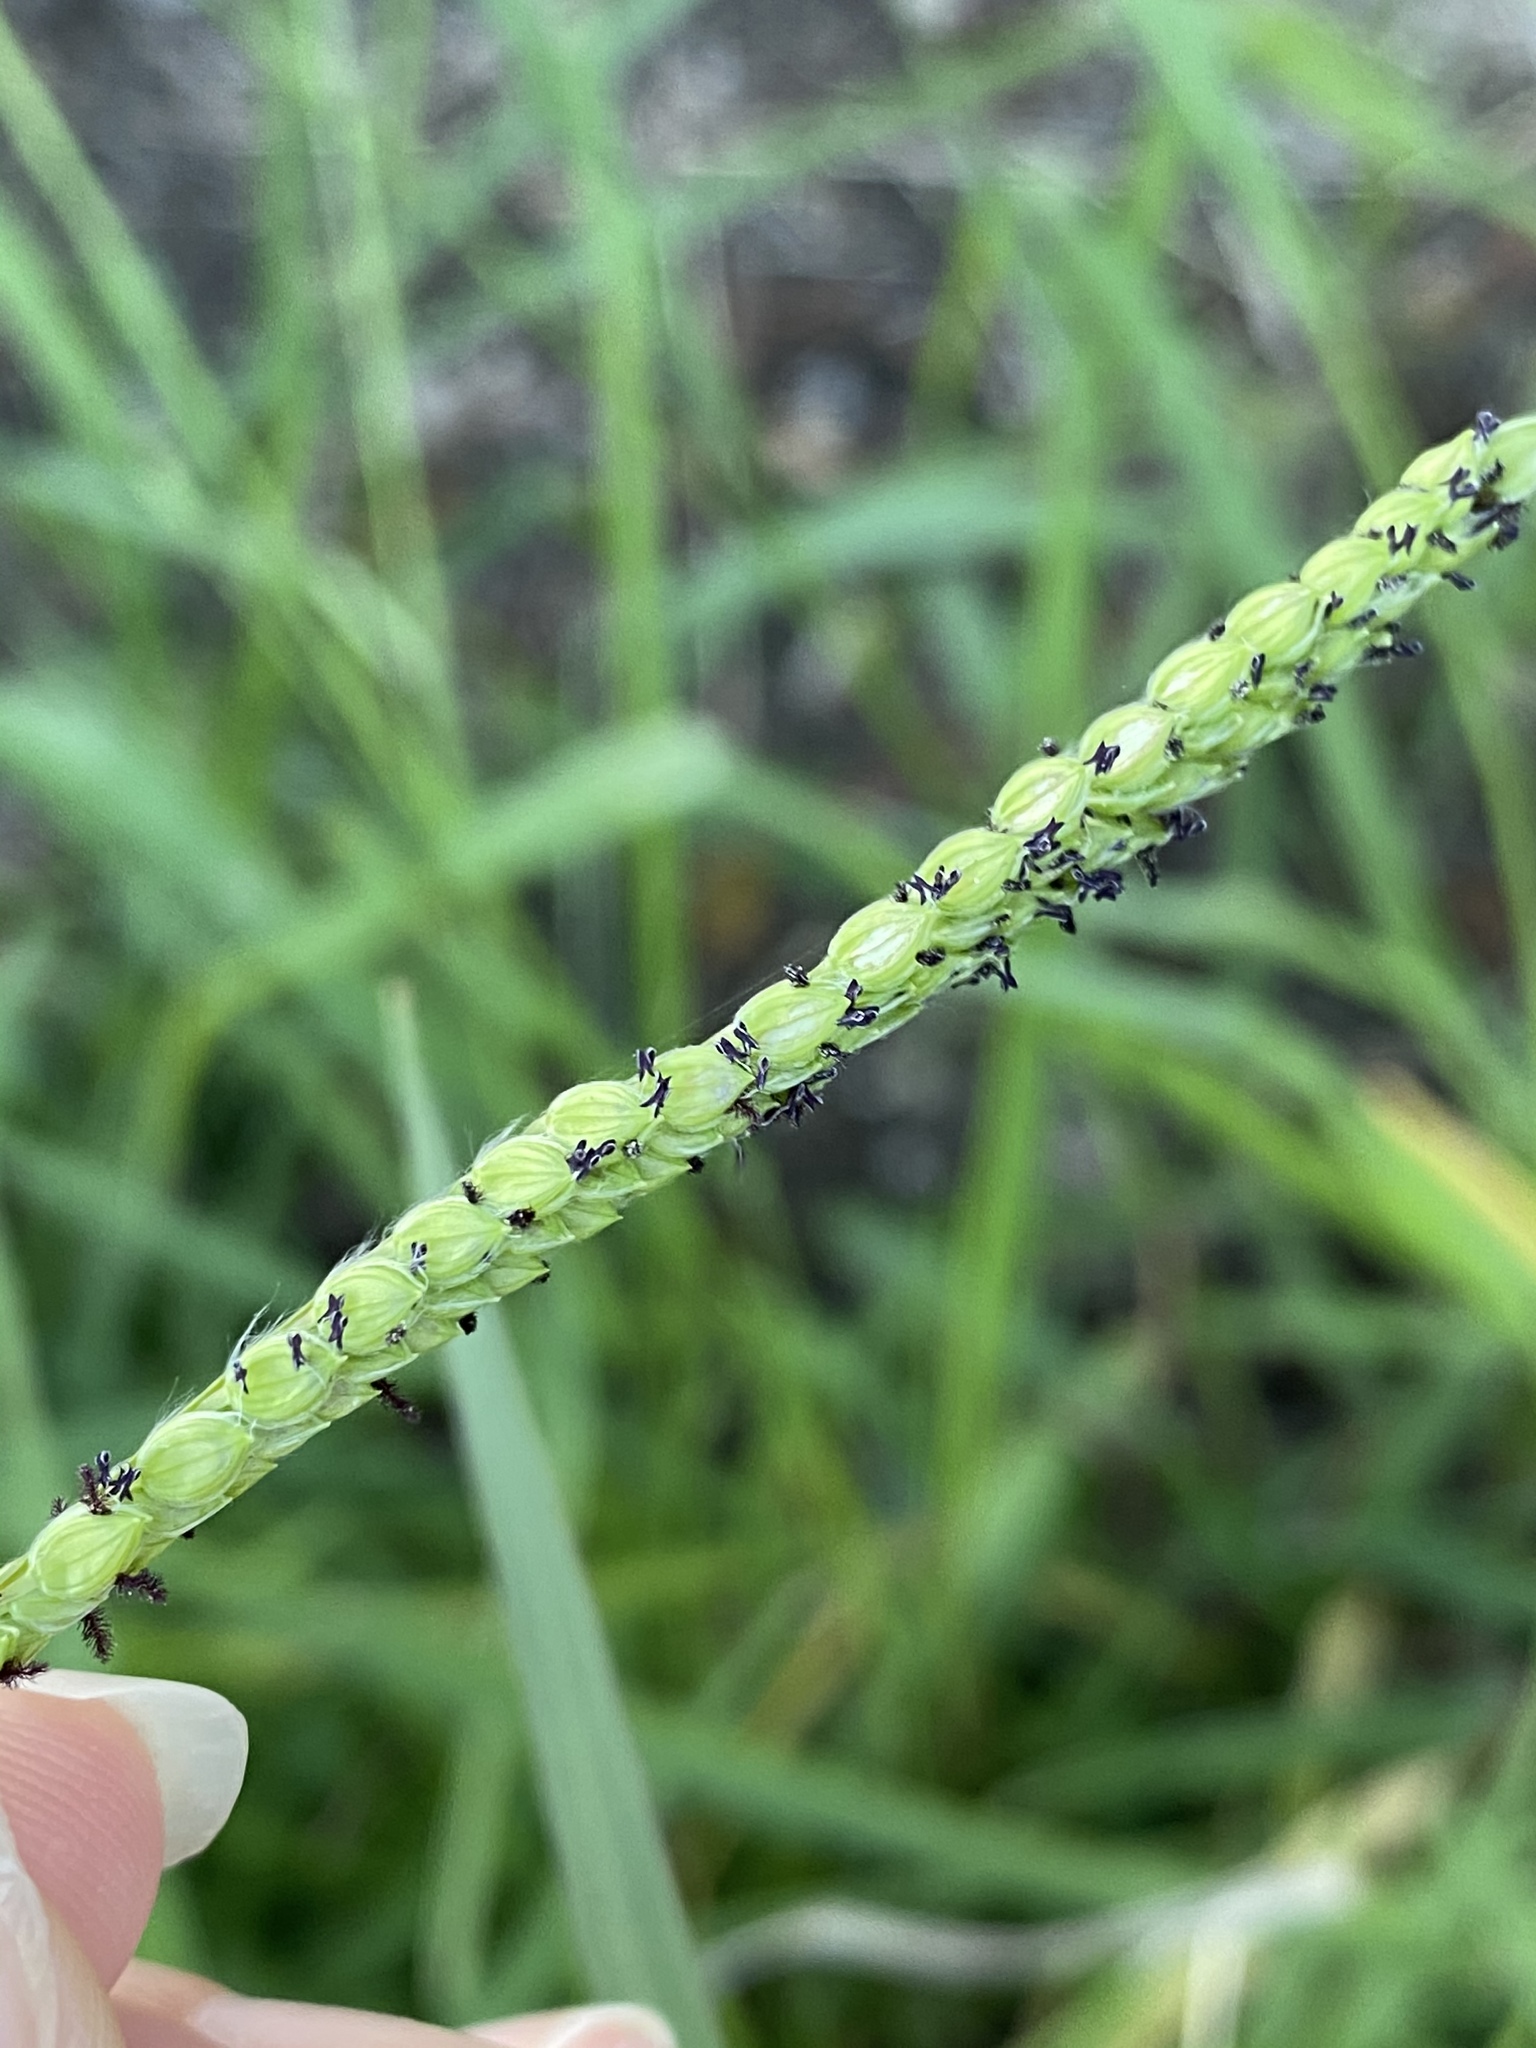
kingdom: Plantae
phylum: Tracheophyta
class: Liliopsida
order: Poales
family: Poaceae
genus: Paspalum
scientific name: Paspalum dilatatum
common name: Dallisgrass
